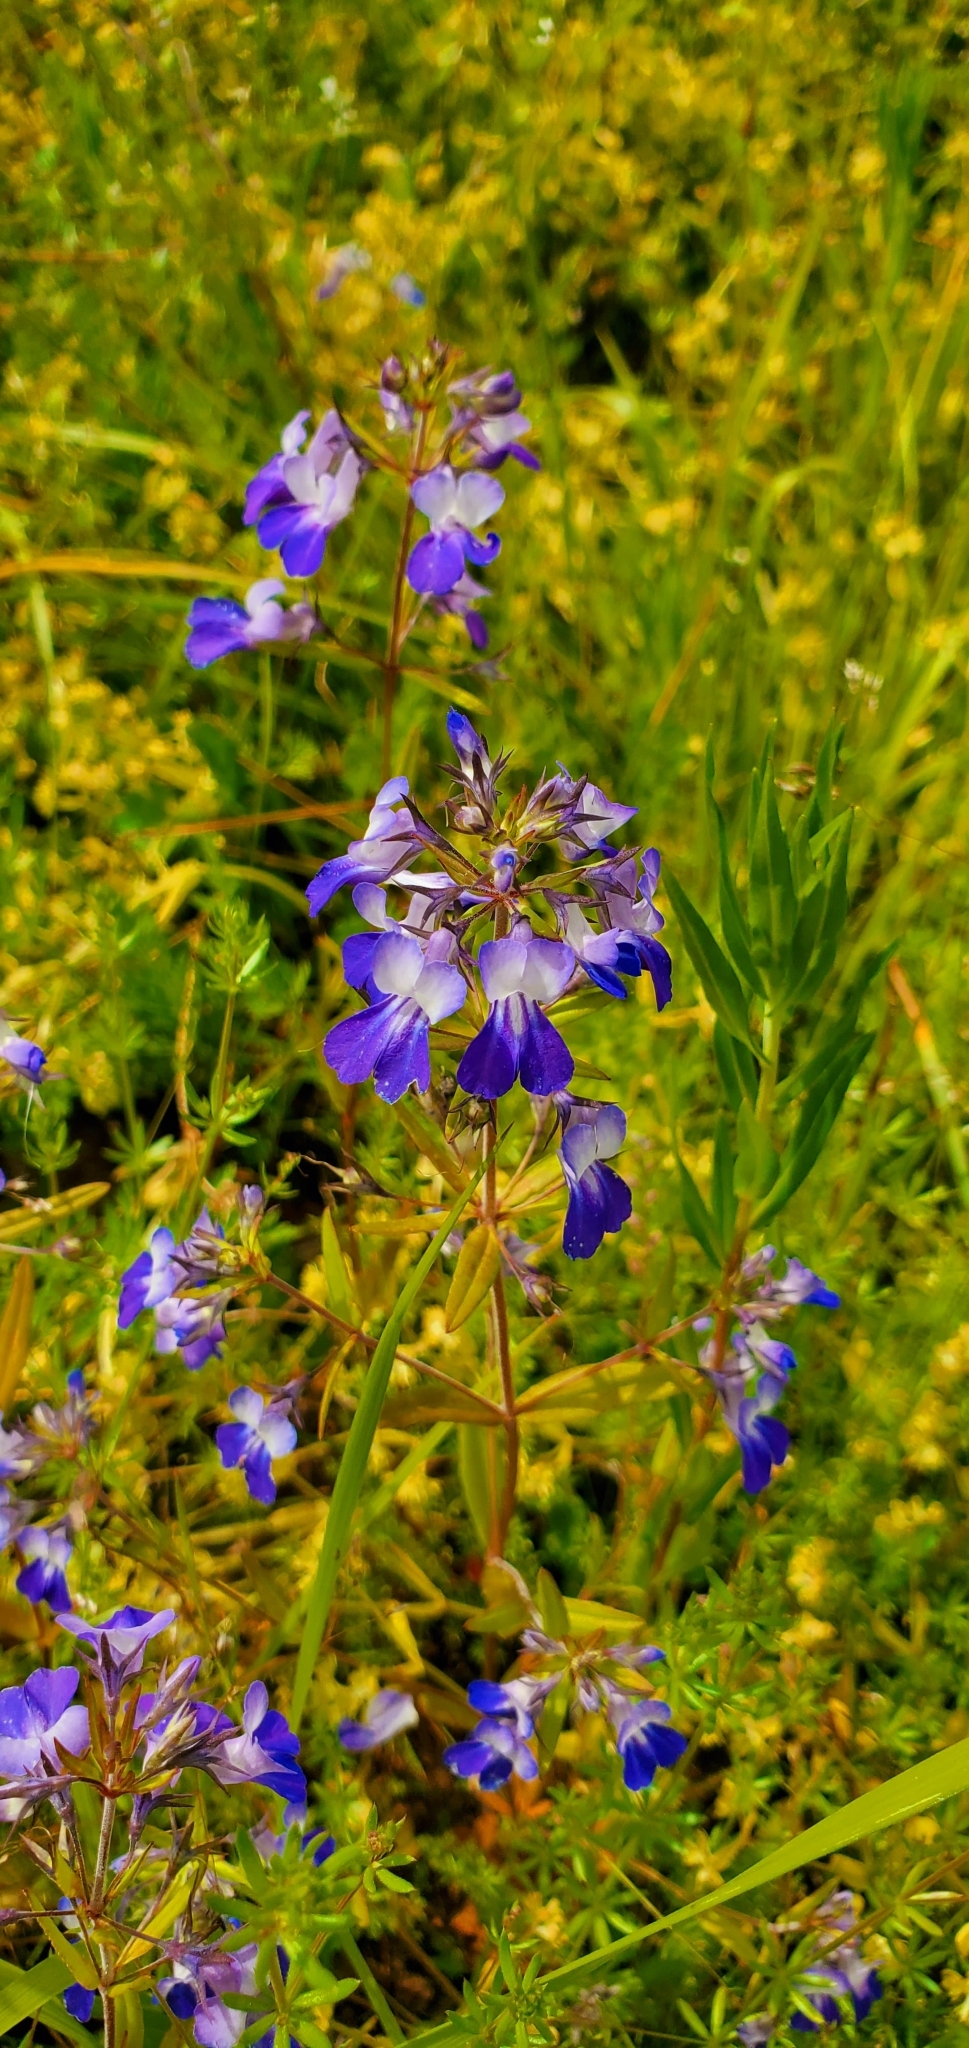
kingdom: Plantae
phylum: Tracheophyta
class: Magnoliopsida
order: Lamiales
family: Plantaginaceae
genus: Collinsia
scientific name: Collinsia grandiflora
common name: Large-flower blue-eyed-mary
